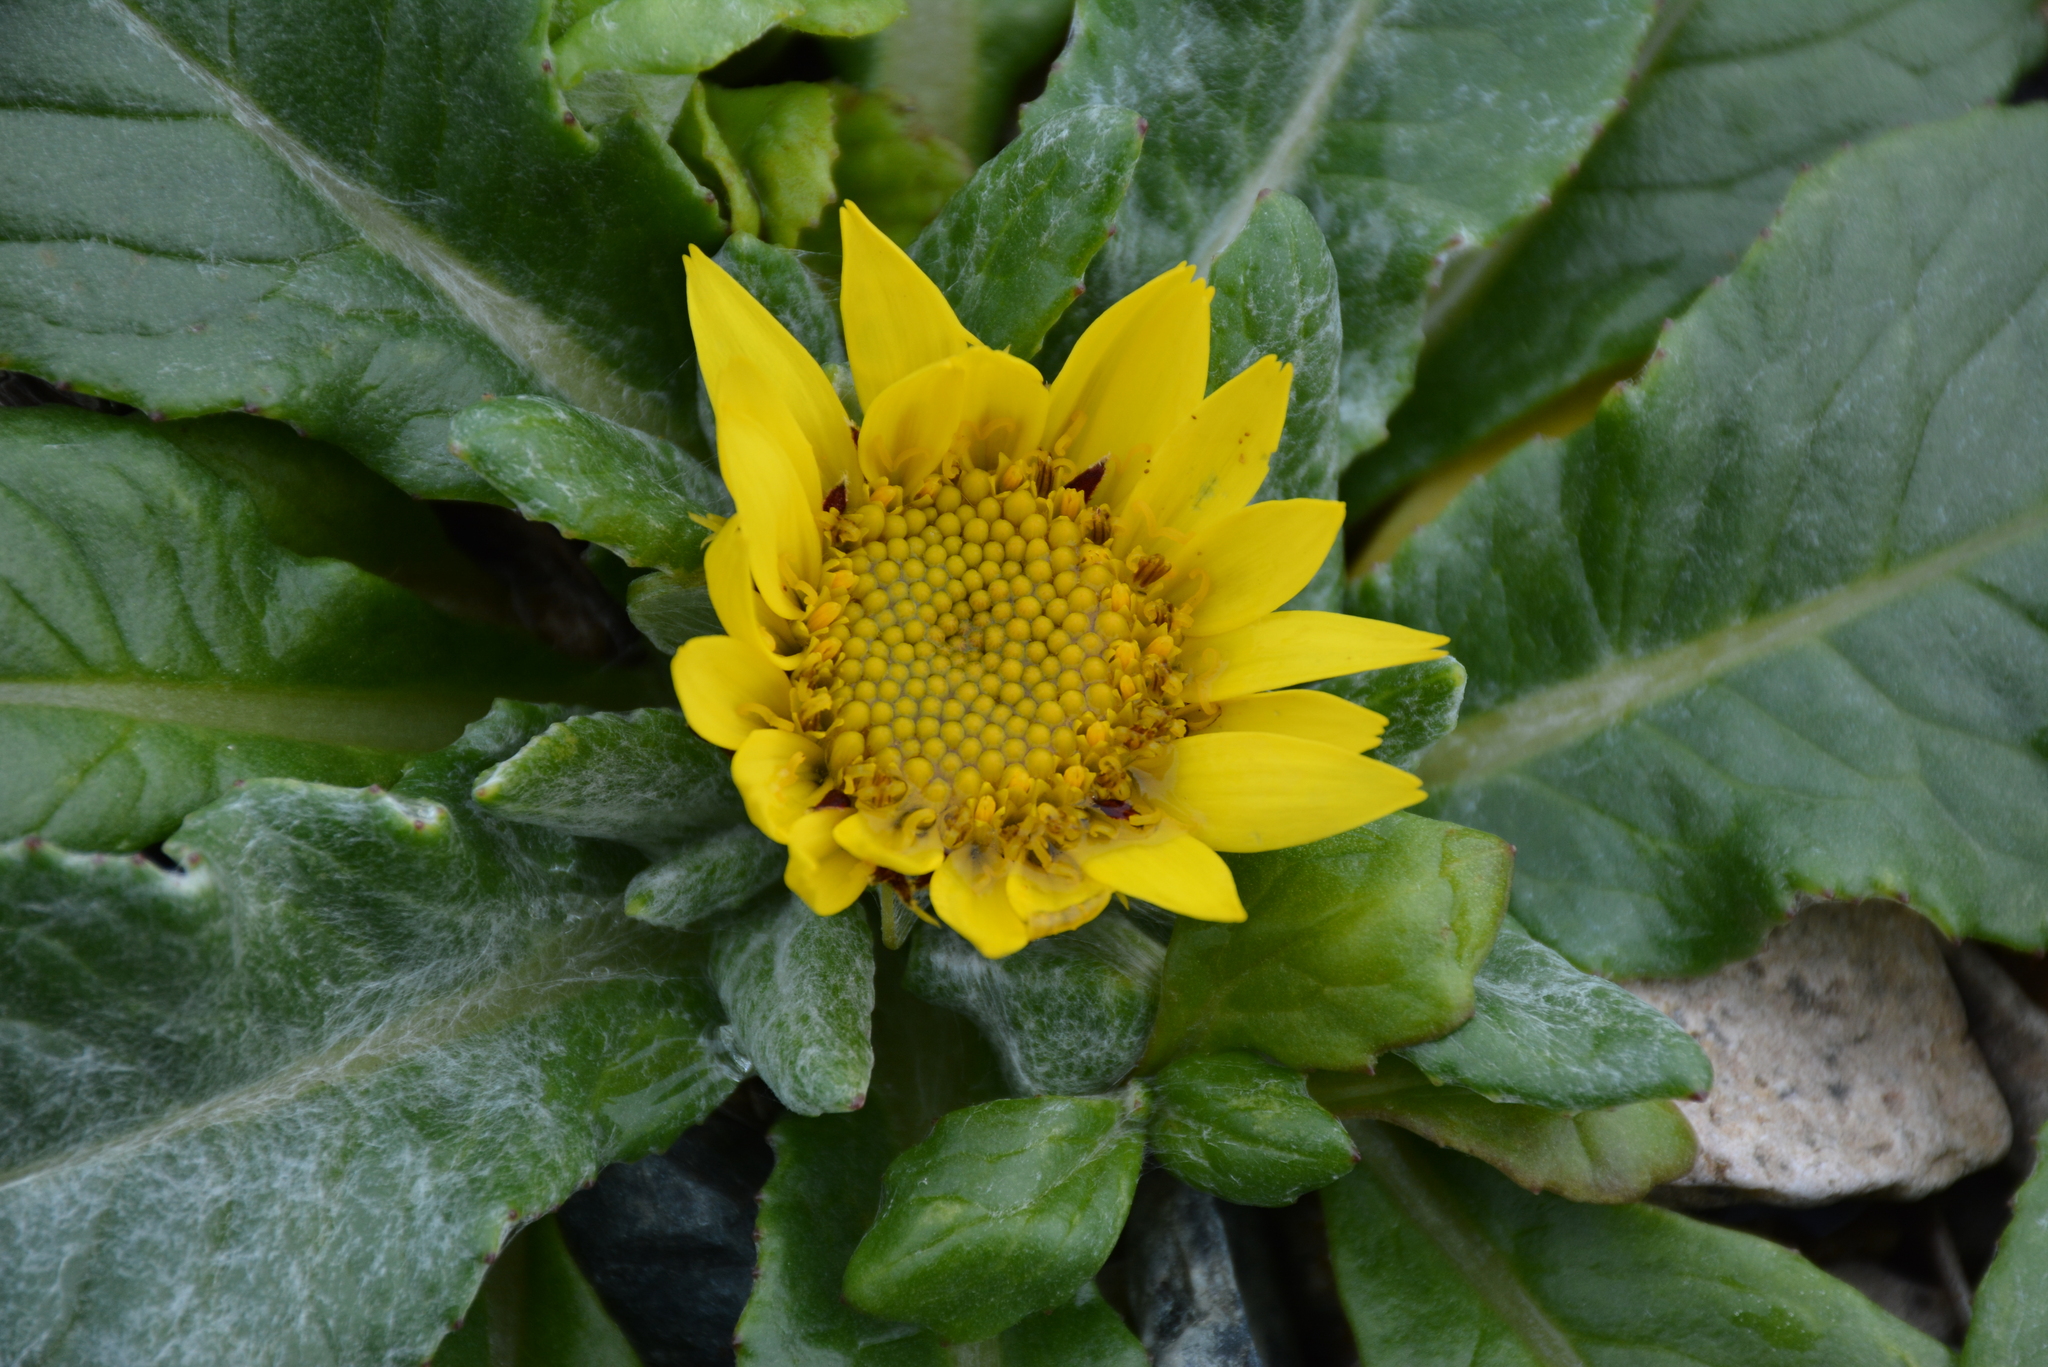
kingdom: Plantae
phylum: Tracheophyta
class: Magnoliopsida
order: Asterales
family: Asteraceae
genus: Jacobaea
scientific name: Jacobaea pseudoarnica
